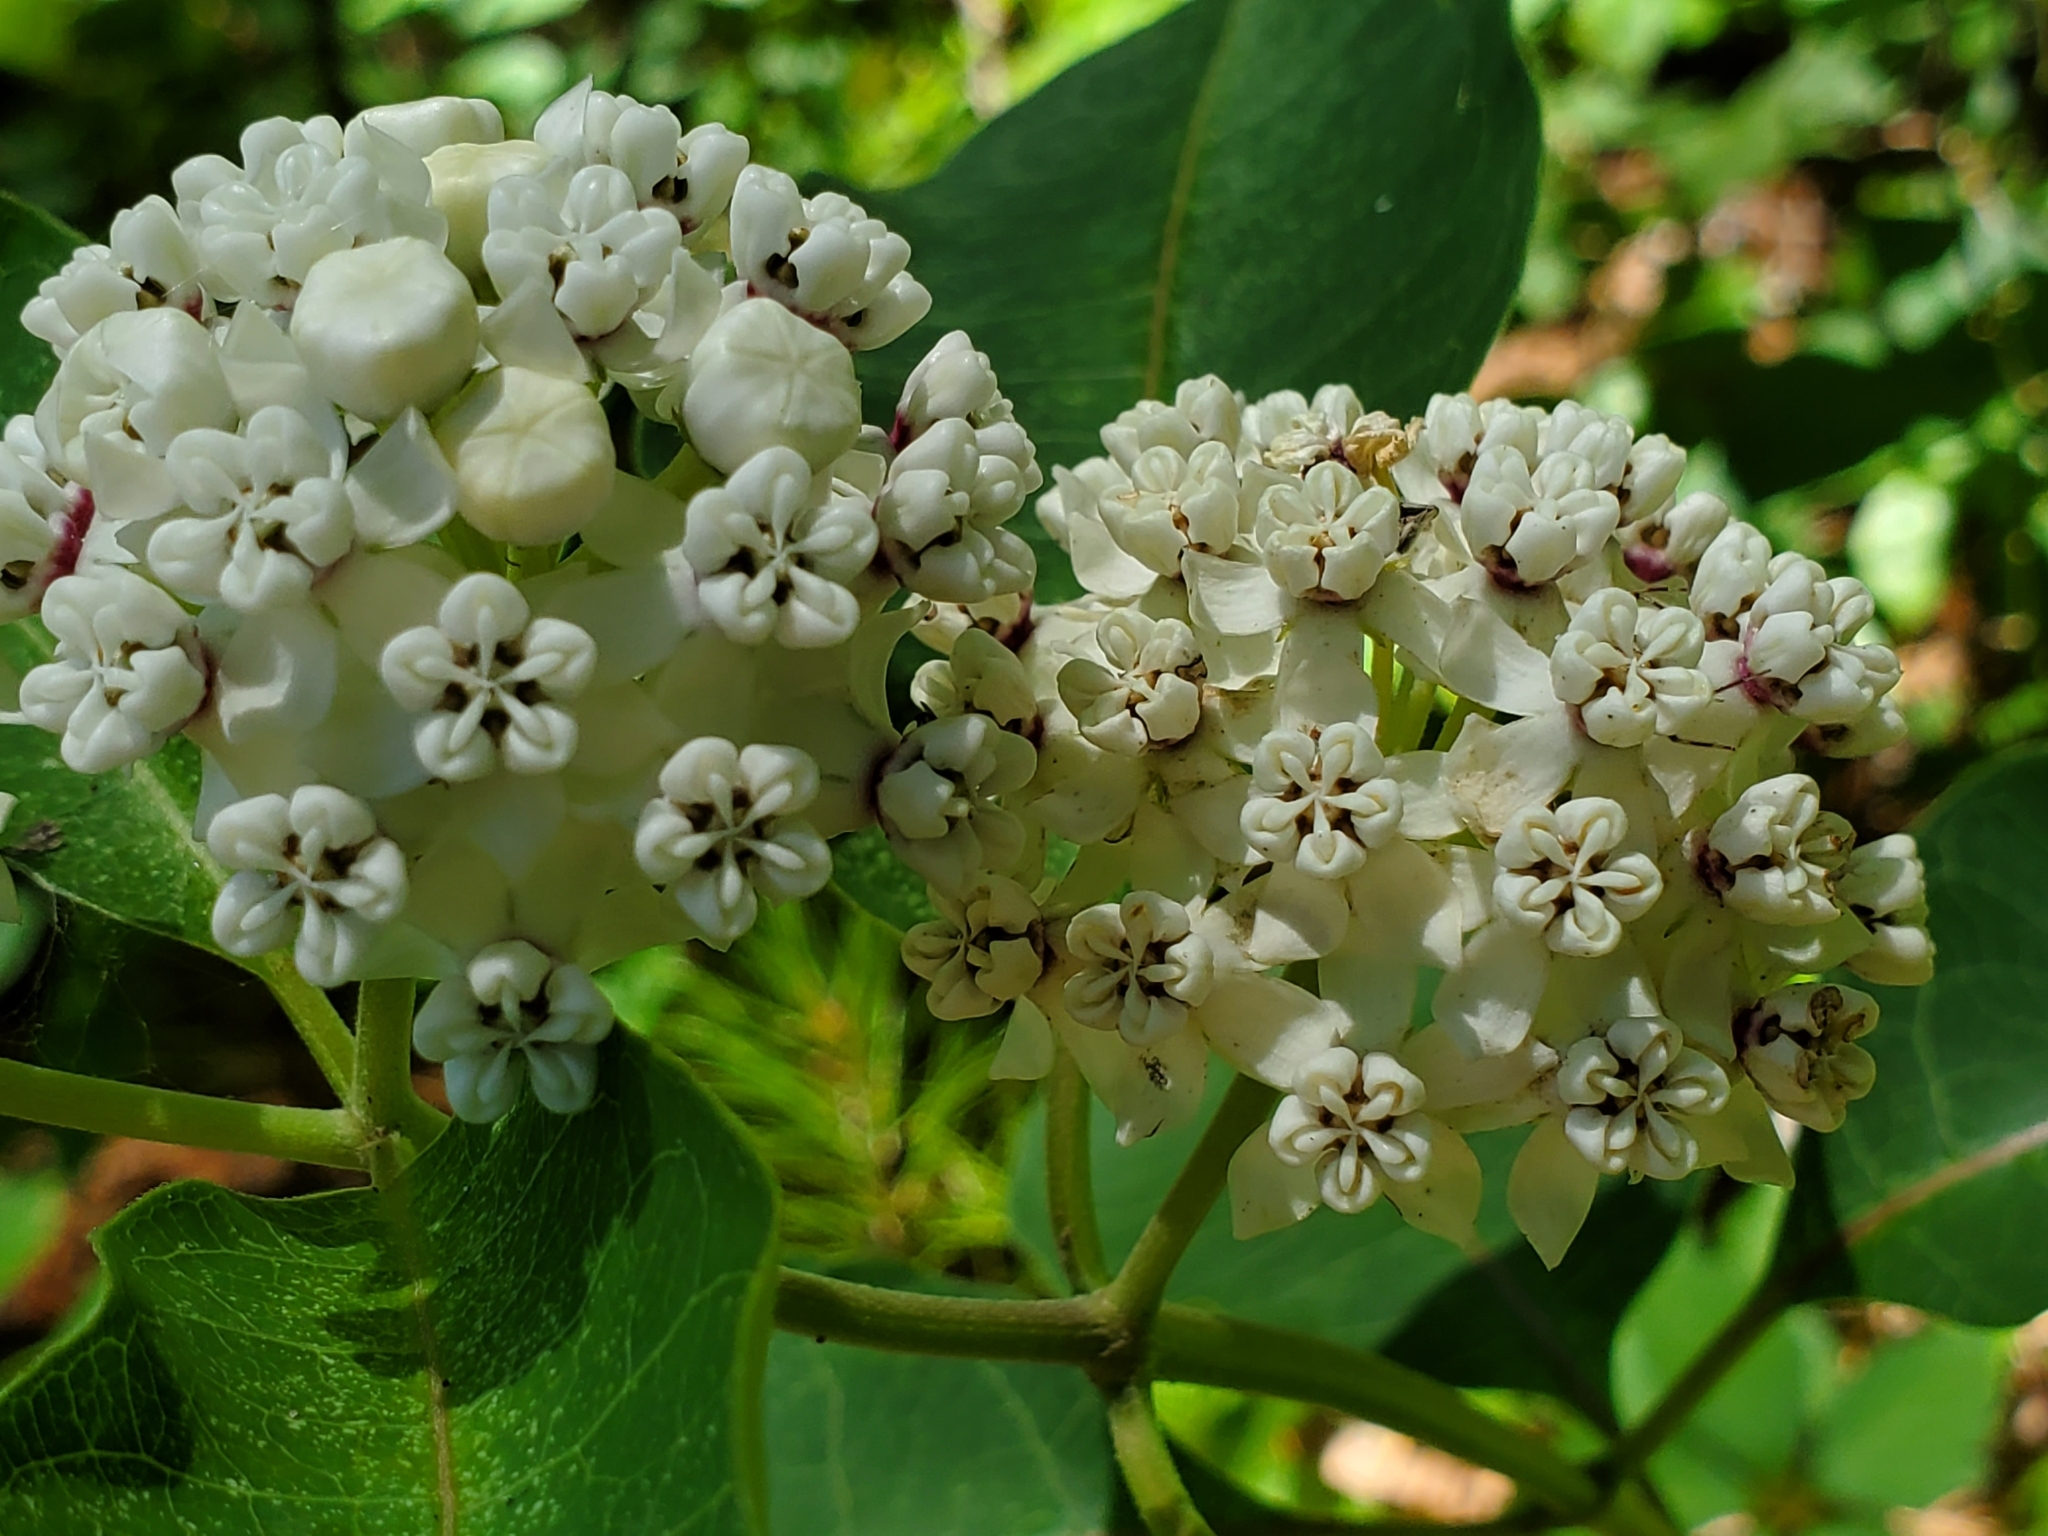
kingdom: Plantae
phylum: Tracheophyta
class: Magnoliopsida
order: Gentianales
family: Apocynaceae
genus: Asclepias
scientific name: Asclepias variegata
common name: Variegated milkweed
